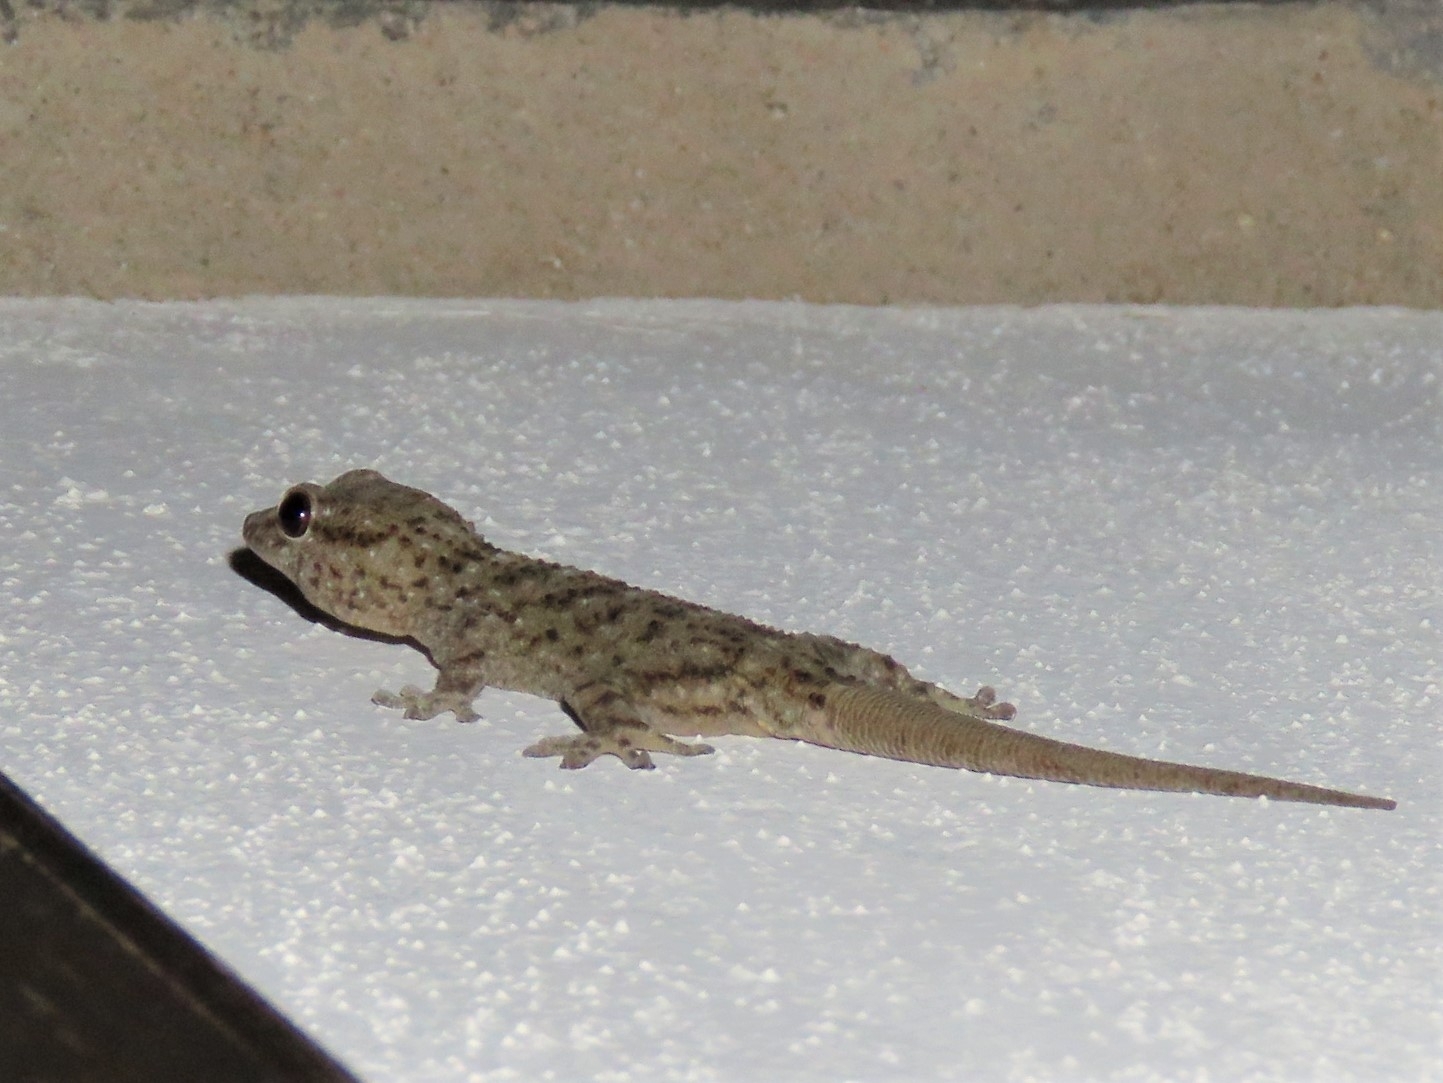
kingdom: Animalia
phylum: Chordata
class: Squamata
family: Phyllodactylidae
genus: Tarentola
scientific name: Tarentola gomerensis
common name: Gomero wall gecko
